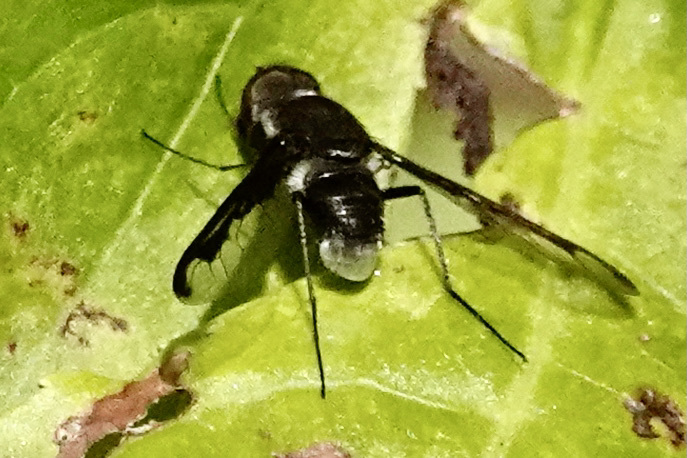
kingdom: Animalia
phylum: Arthropoda
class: Insecta
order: Diptera
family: Bombyliidae
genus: Anthrax
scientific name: Anthrax argyropygus
